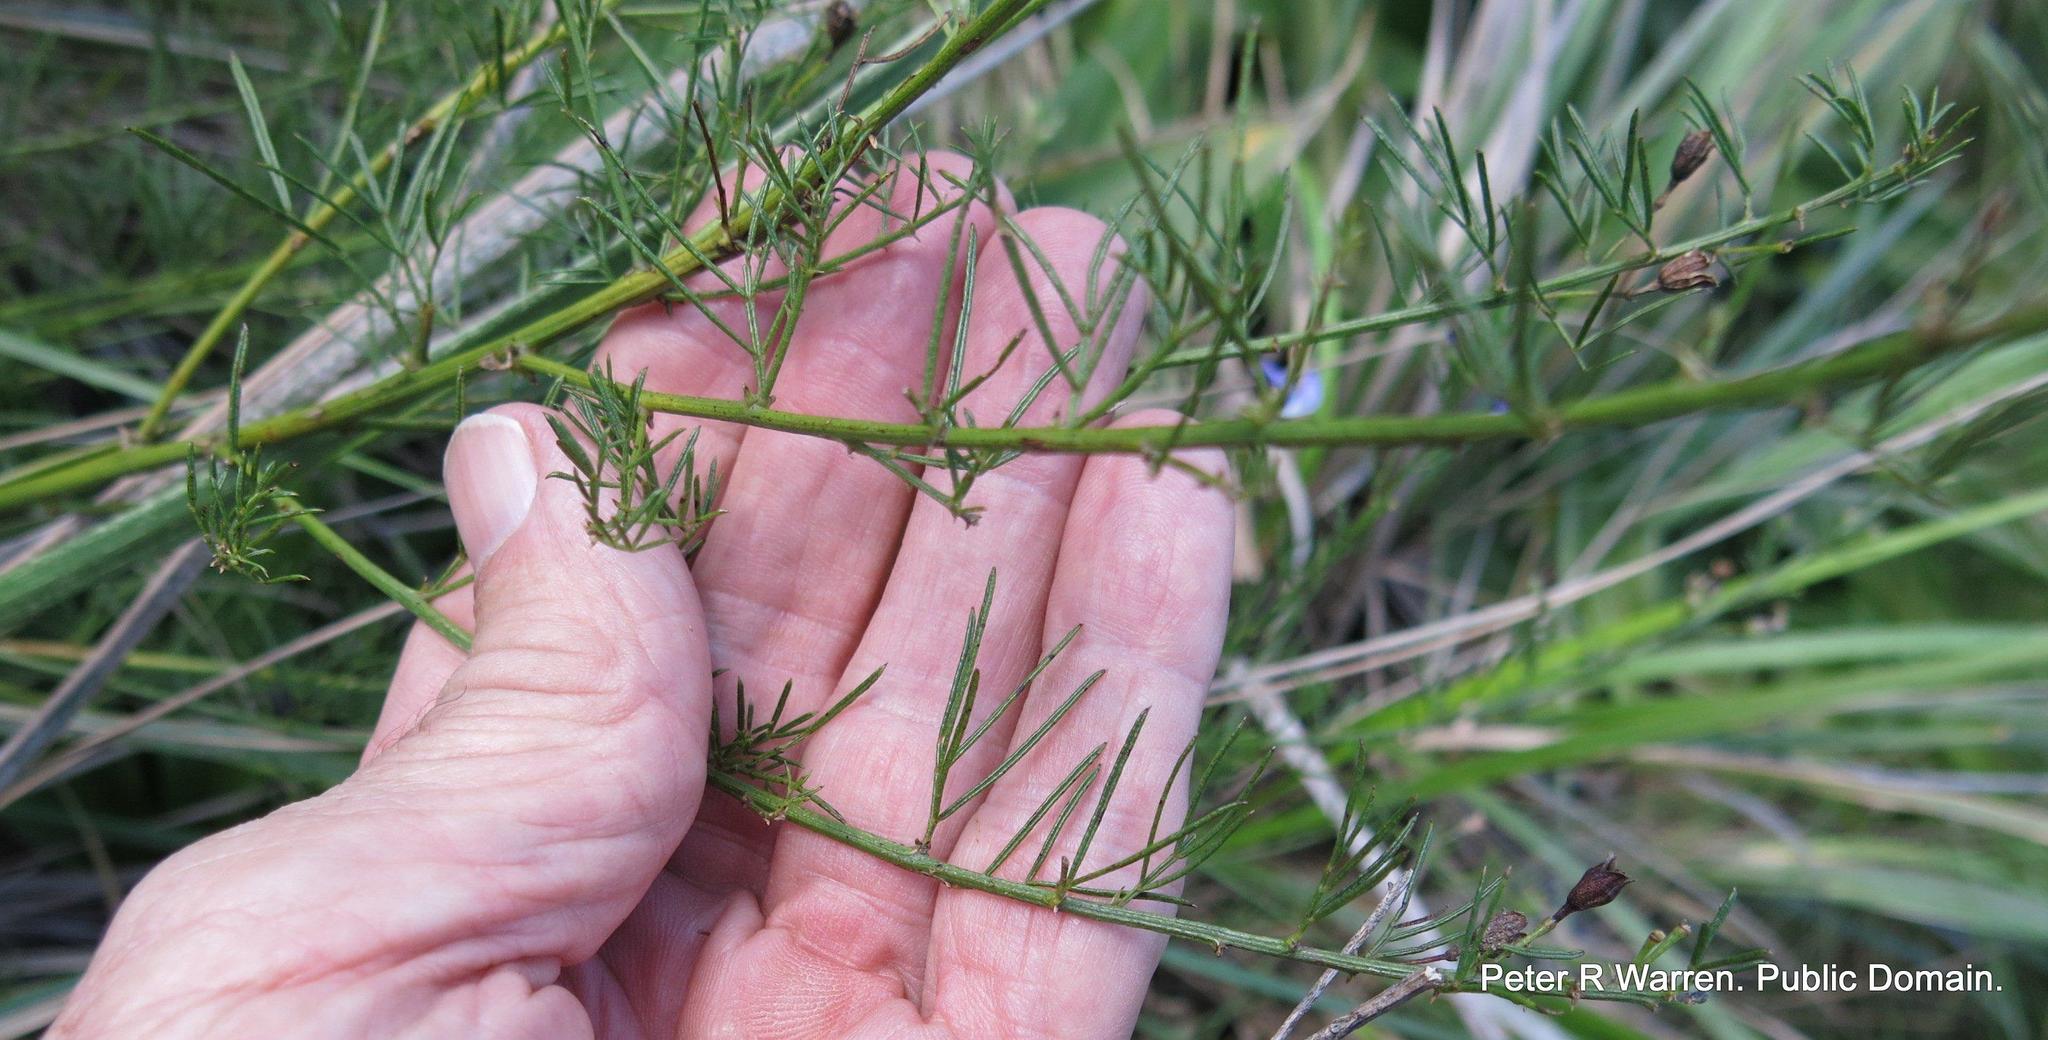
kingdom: Plantae
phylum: Tracheophyta
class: Magnoliopsida
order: Fabales
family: Fabaceae
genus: Psoralea
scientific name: Psoralea rhizotoma
